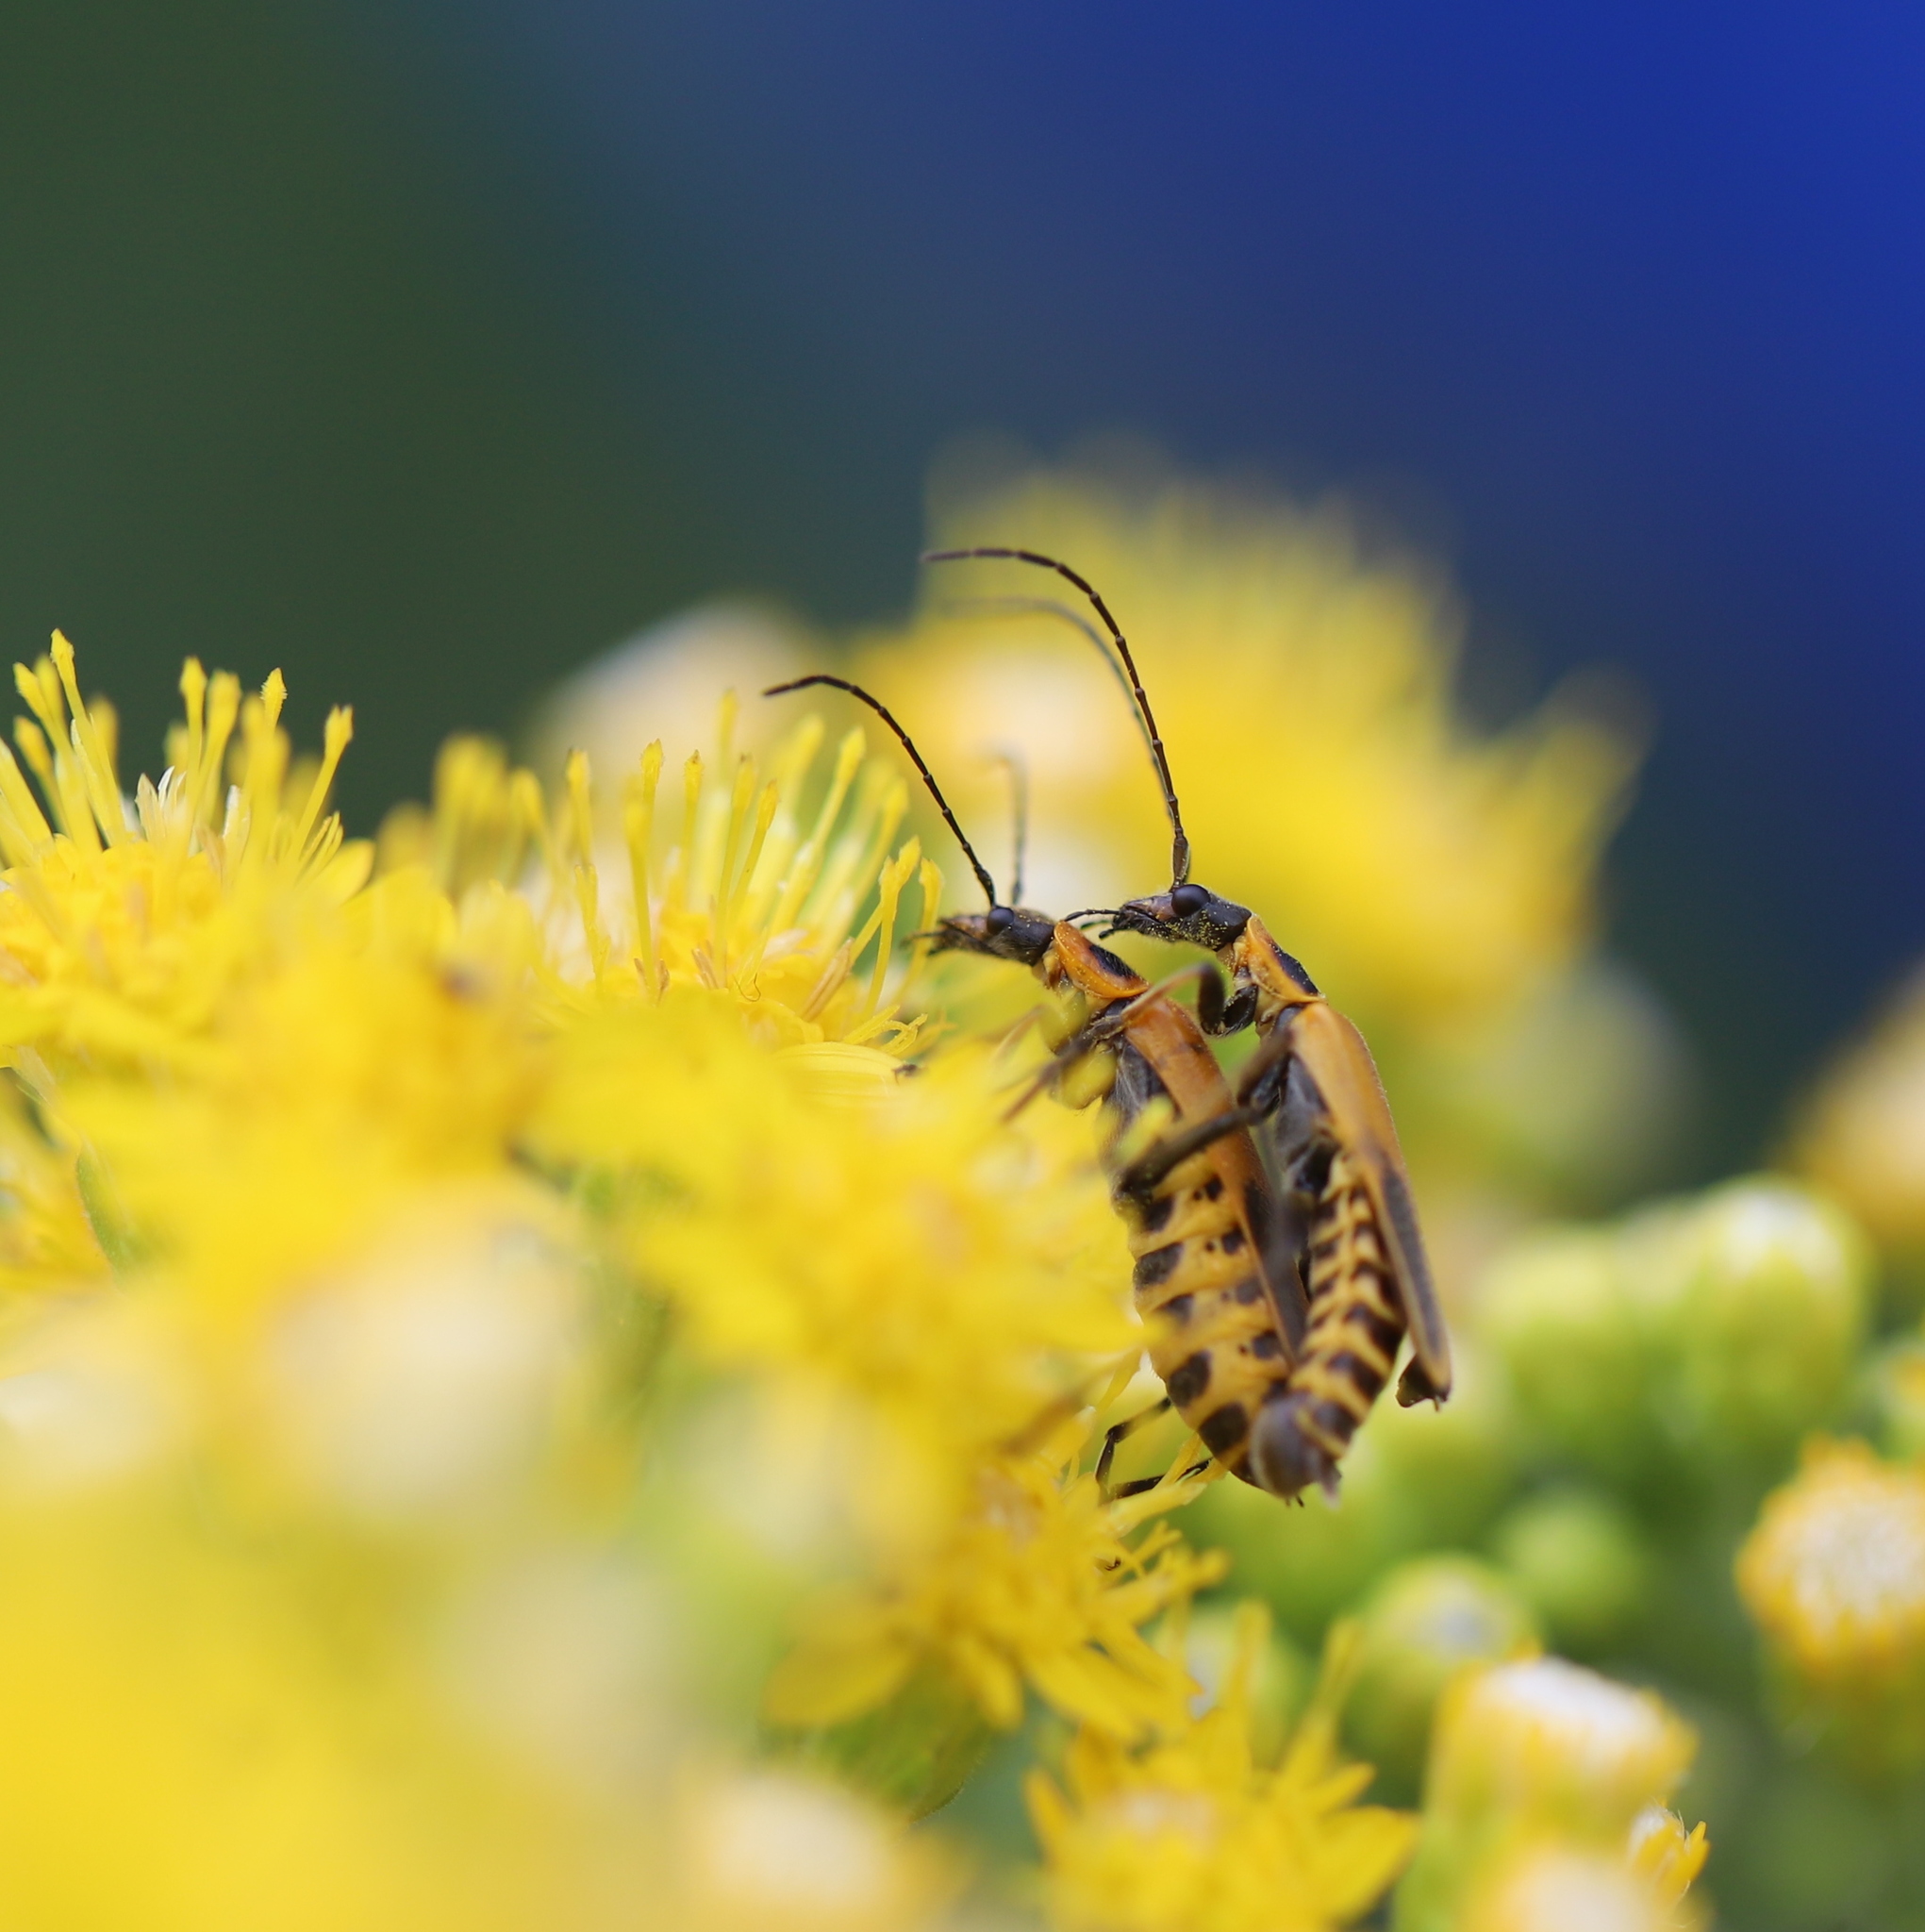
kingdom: Animalia
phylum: Arthropoda
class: Insecta
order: Coleoptera
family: Cantharidae
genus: Chauliognathus
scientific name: Chauliognathus pensylvanicus
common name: Goldenrod soldier beetle
